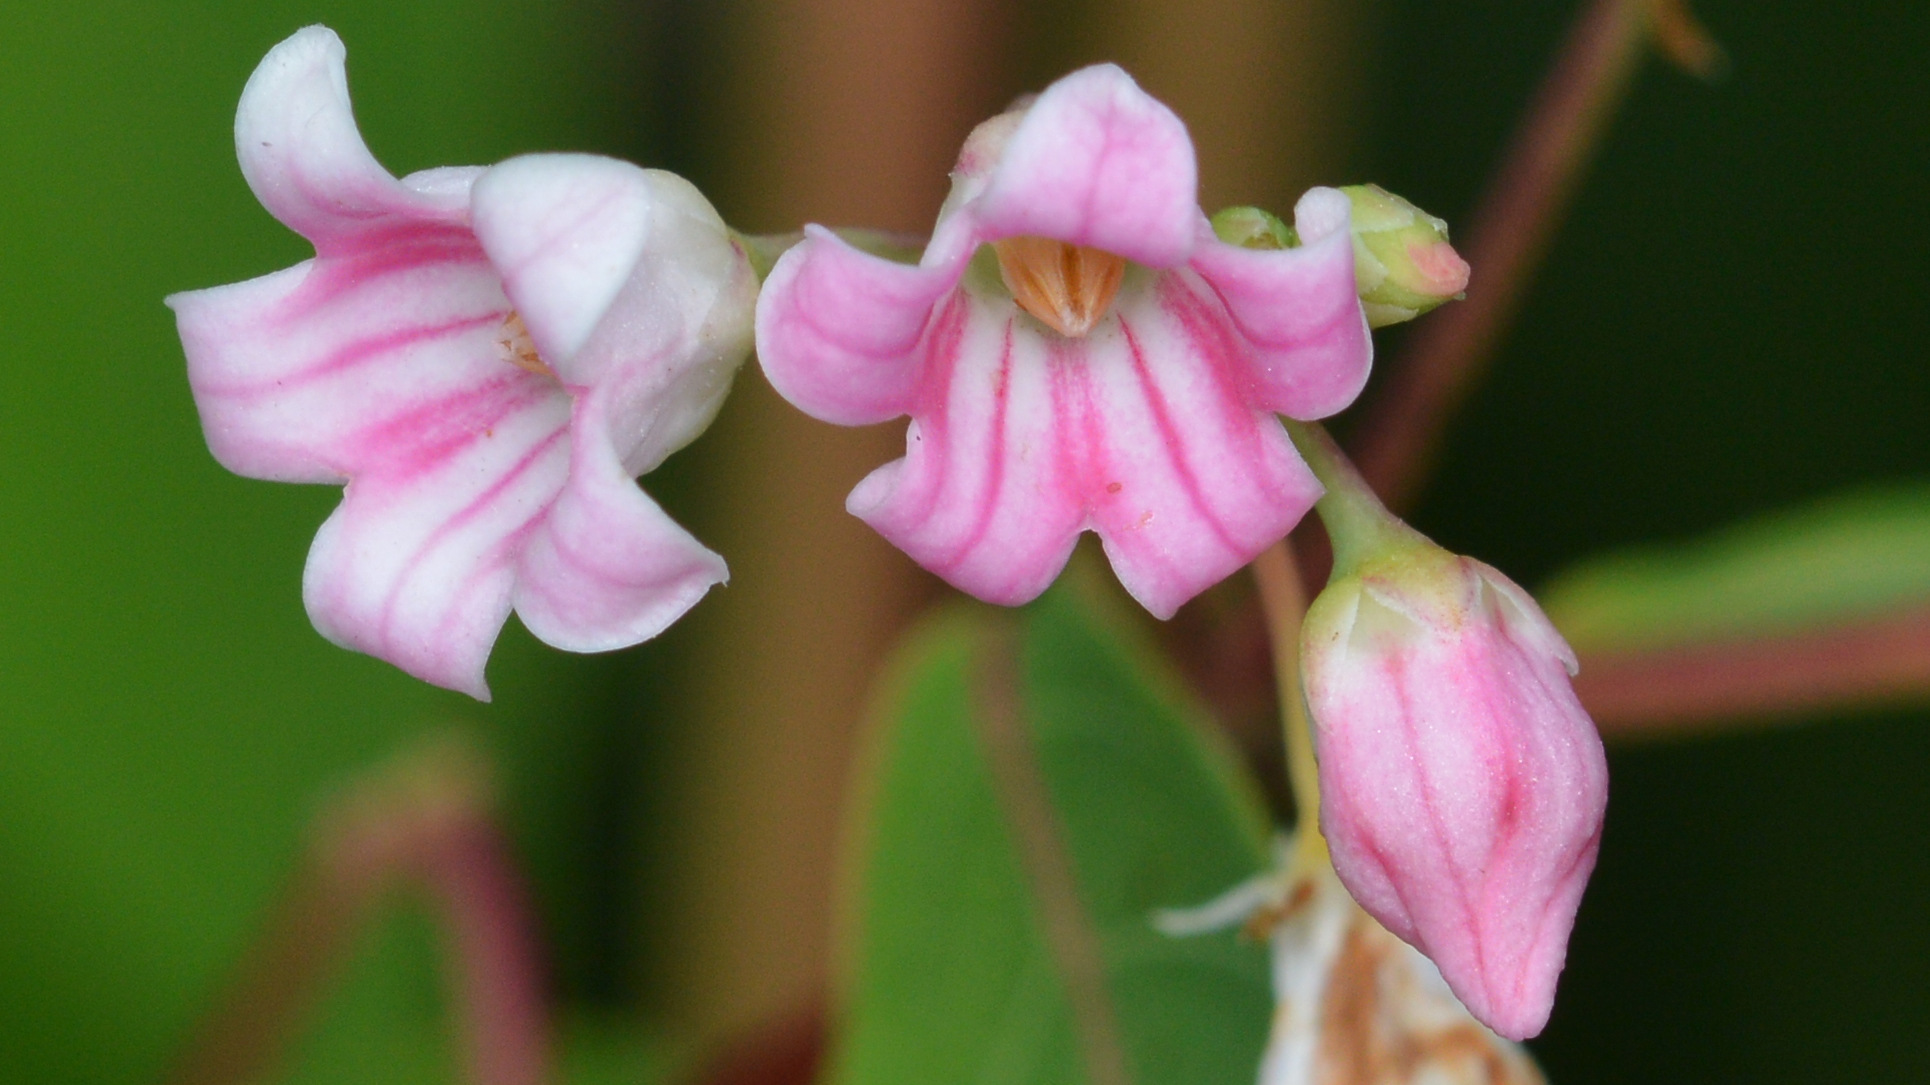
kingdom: Plantae
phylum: Tracheophyta
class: Magnoliopsida
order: Gentianales
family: Apocynaceae
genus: Apocynum
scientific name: Apocynum androsaemifolium
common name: Spreading dogbane
